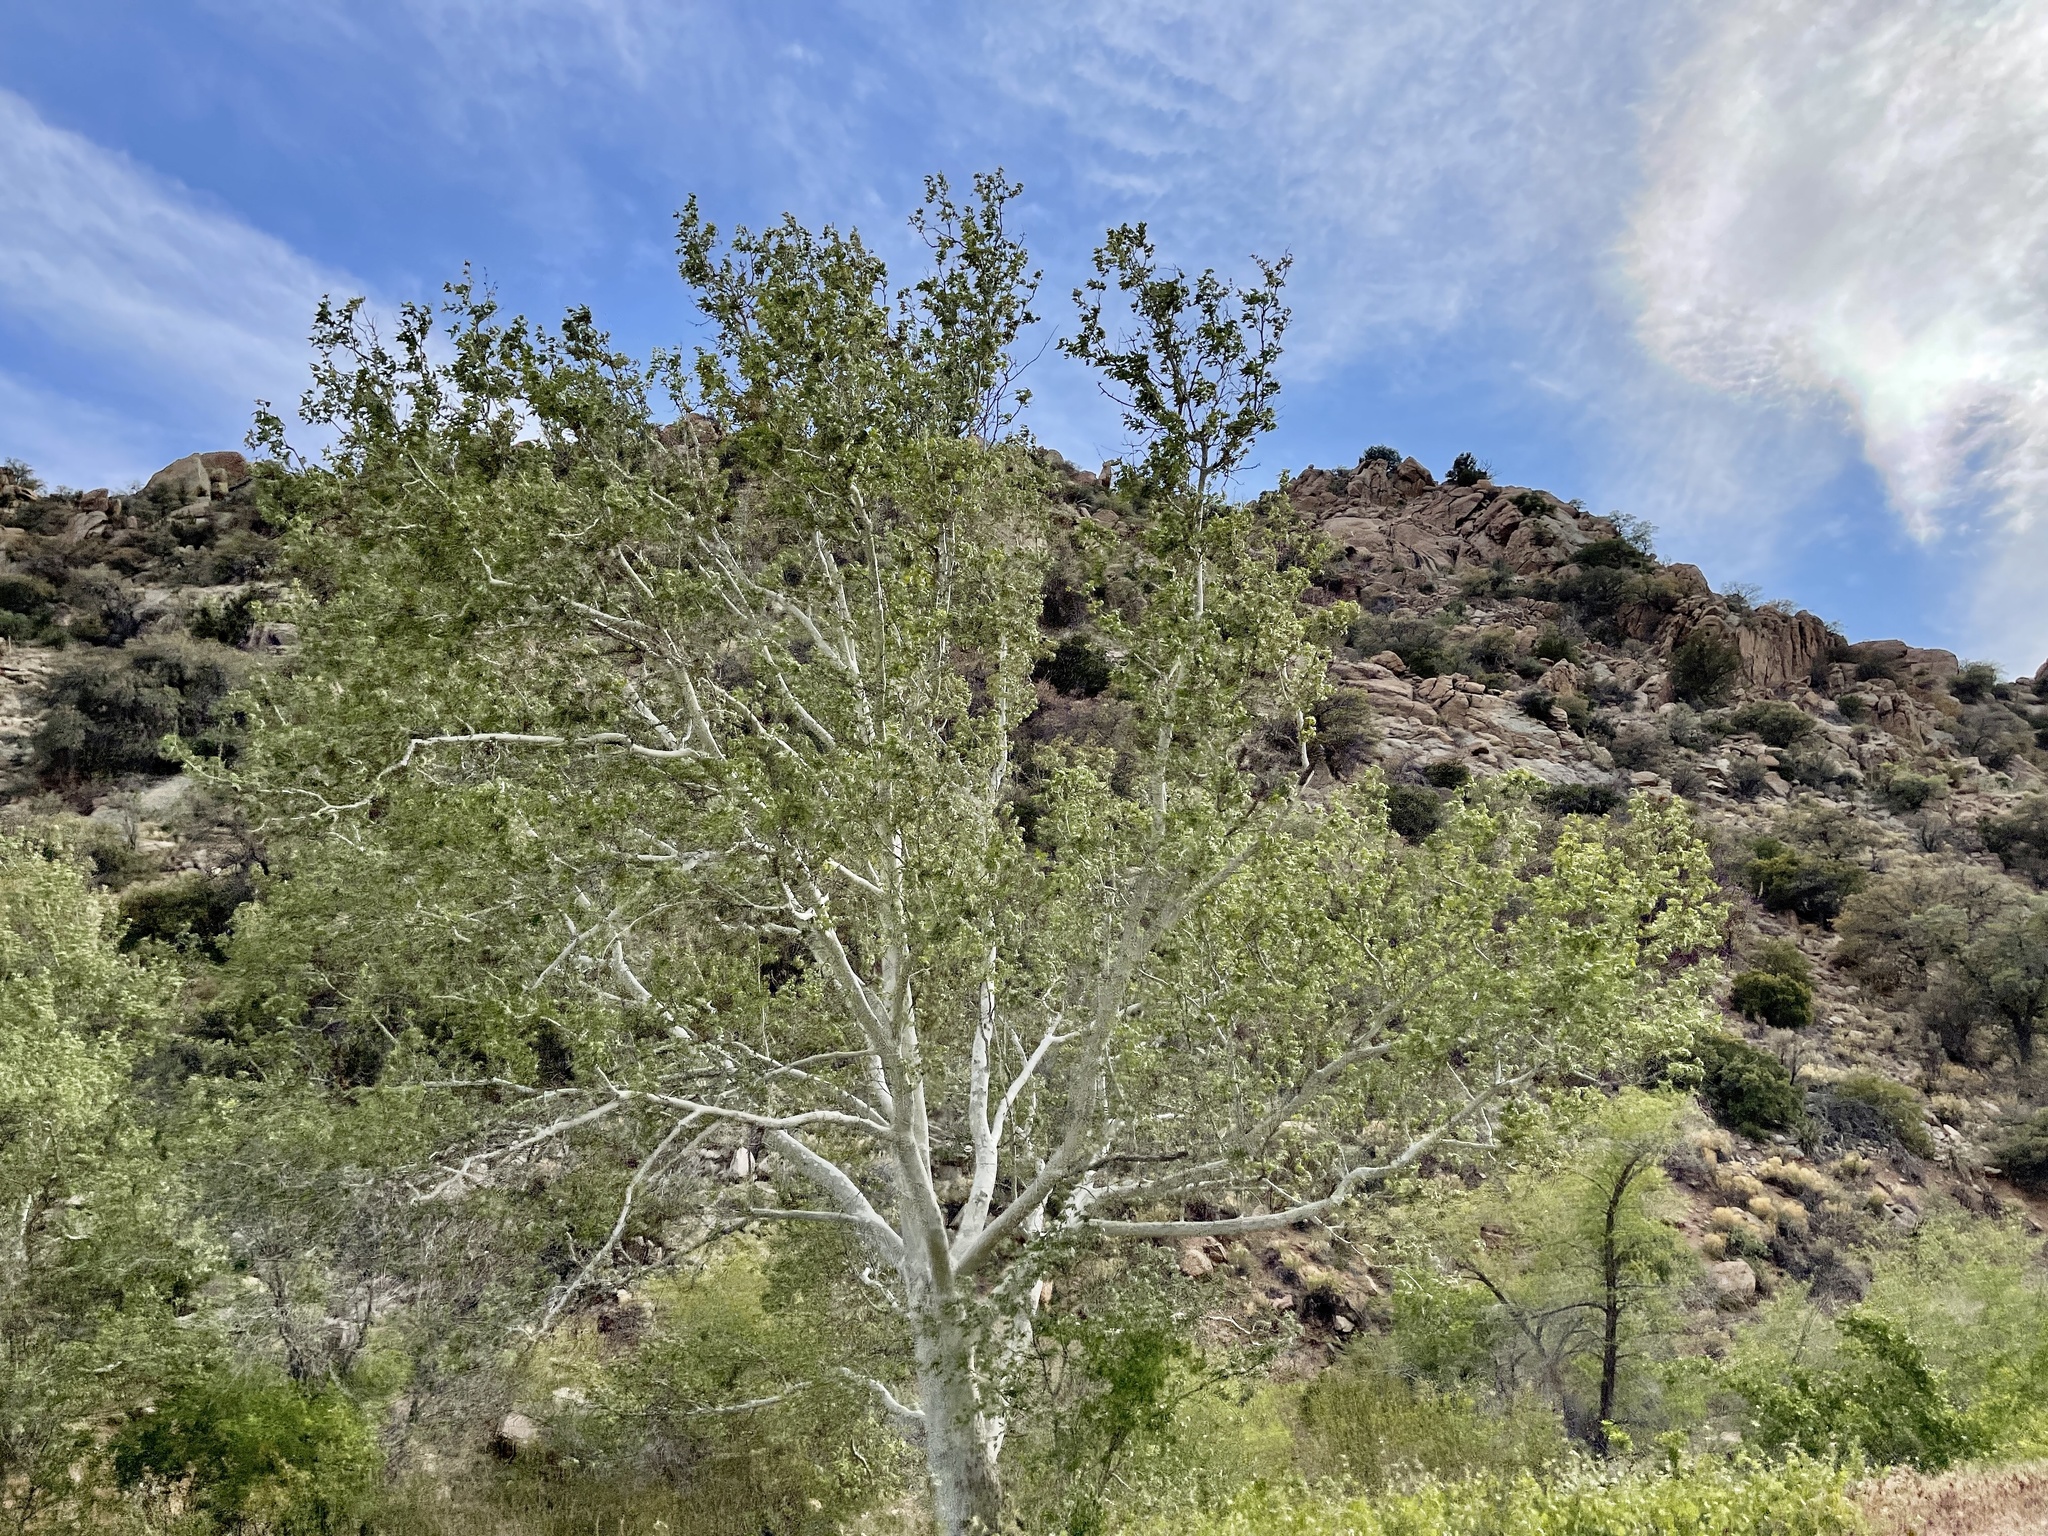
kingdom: Plantae
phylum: Tracheophyta
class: Magnoliopsida
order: Proteales
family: Platanaceae
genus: Platanus
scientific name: Platanus wrightii
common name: Arizona sycamore
